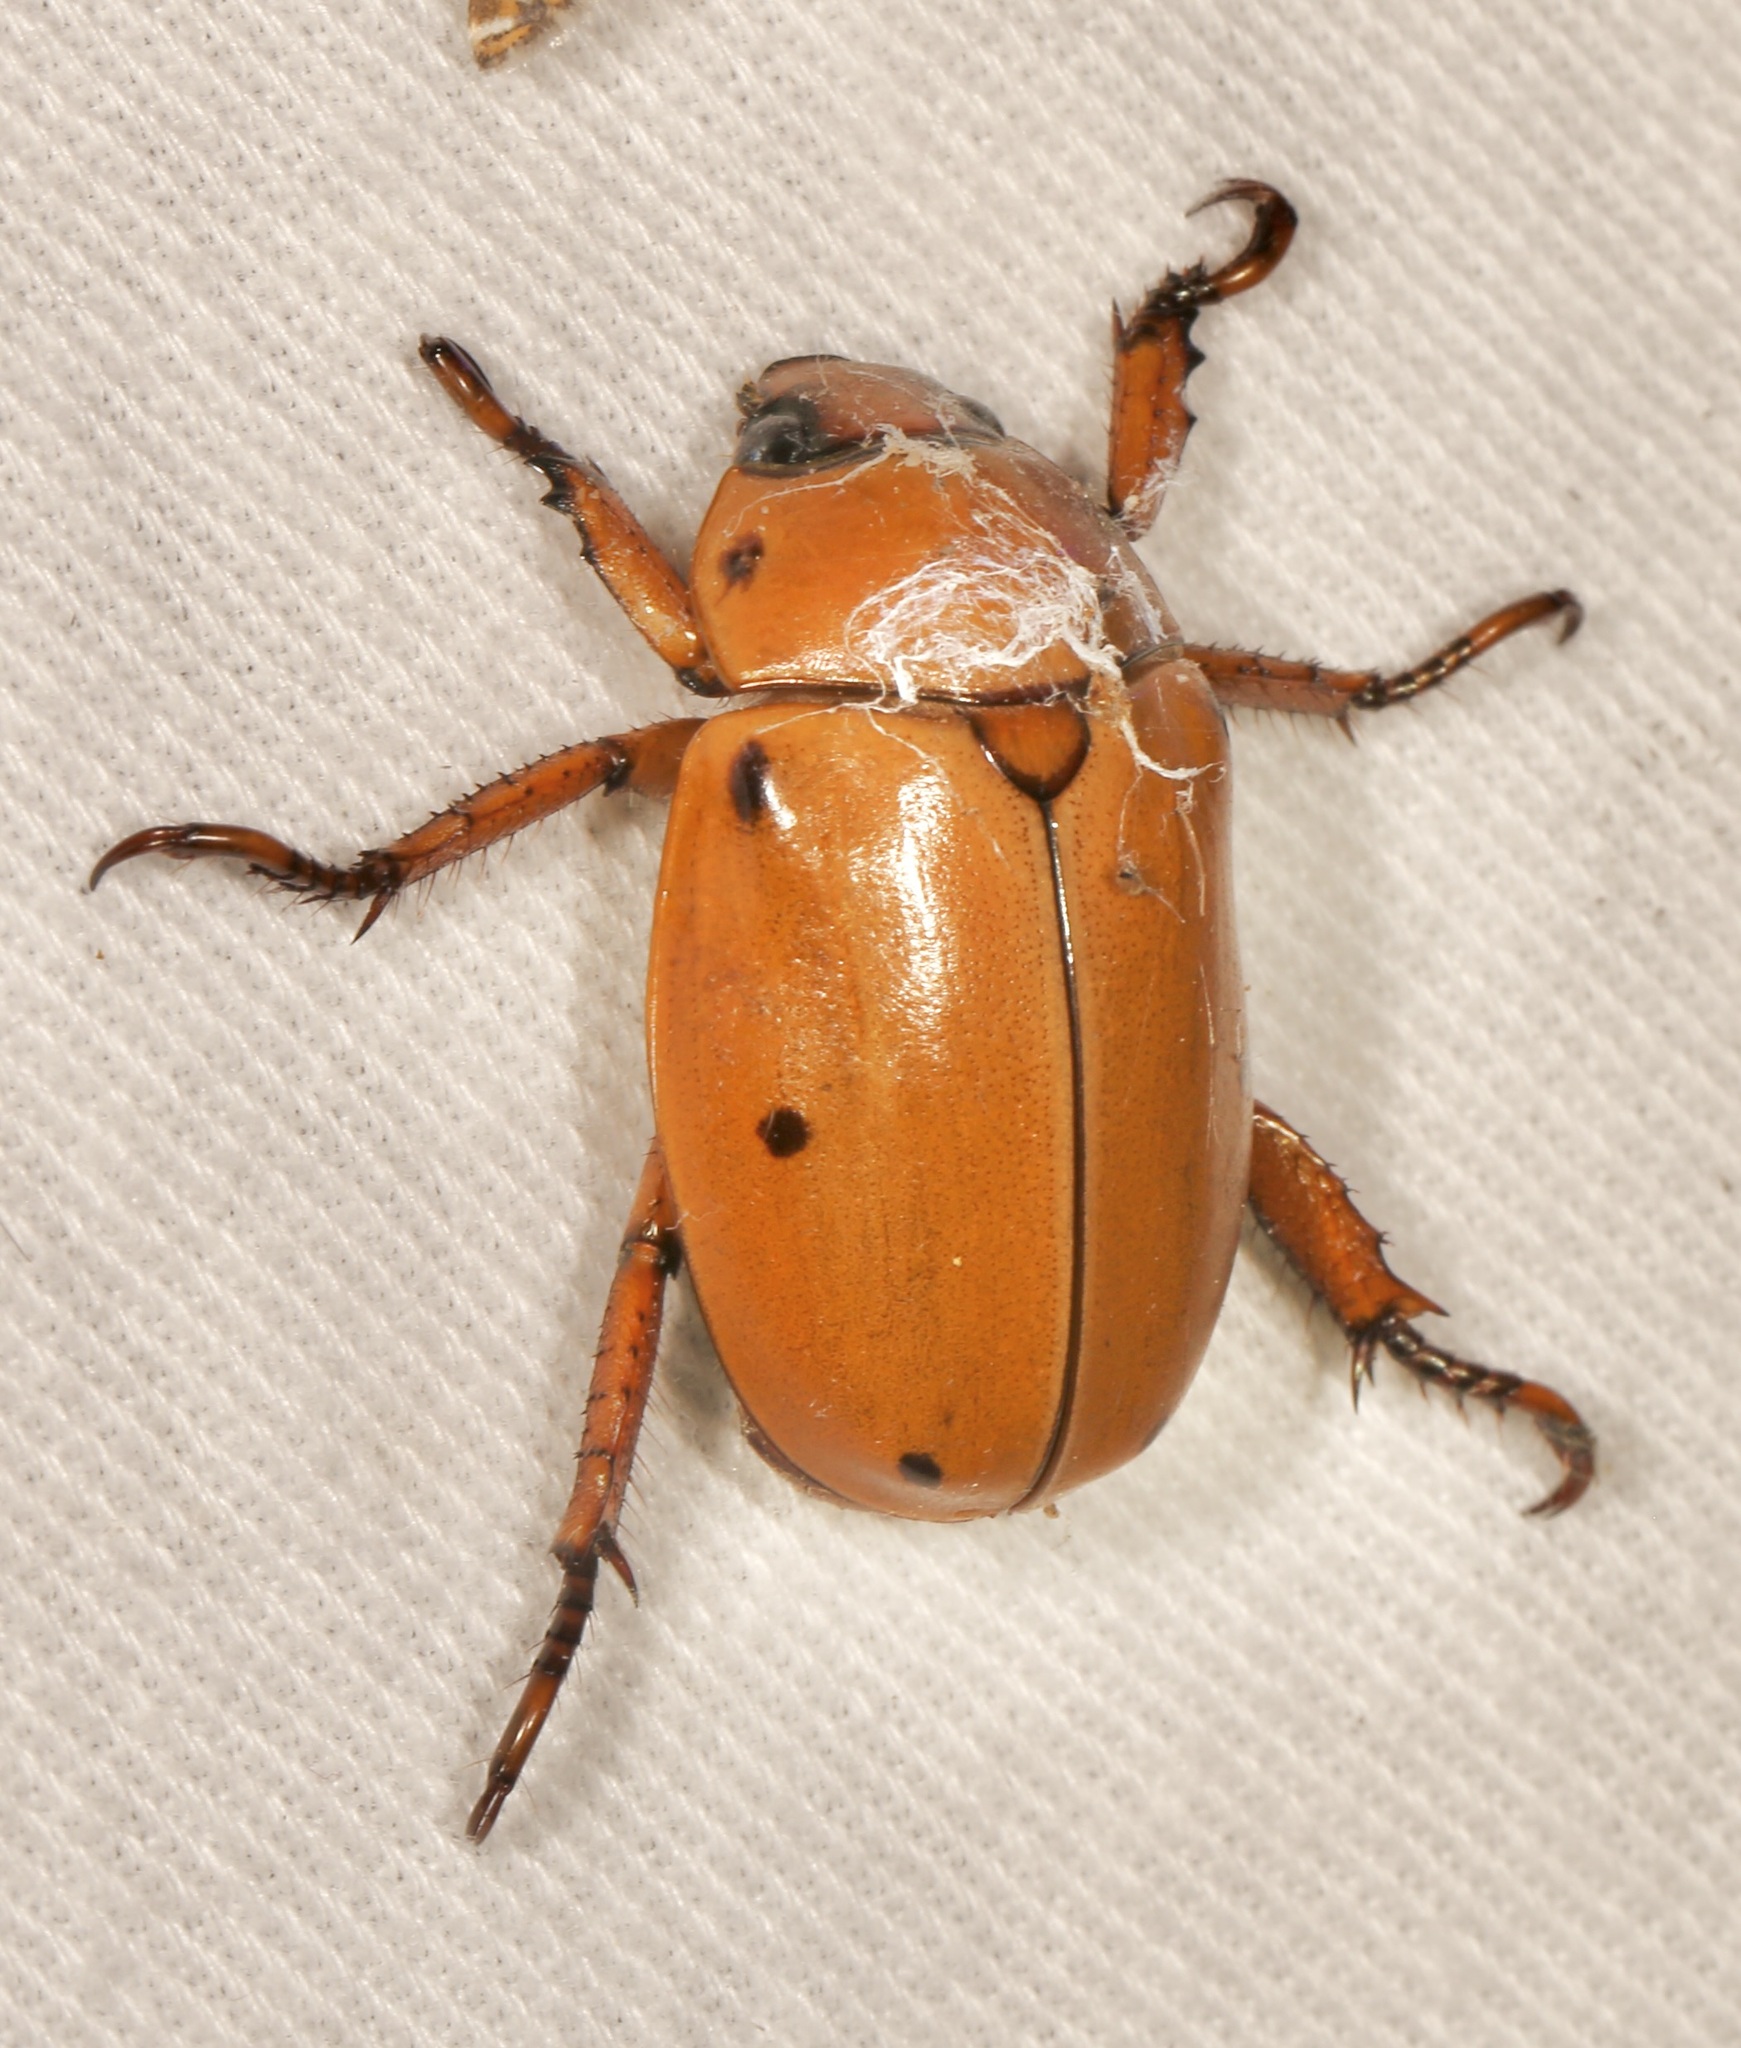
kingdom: Animalia
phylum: Arthropoda
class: Insecta
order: Coleoptera
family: Scarabaeidae
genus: Pelidnota
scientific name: Pelidnota punctata
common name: Grapevine beetle
